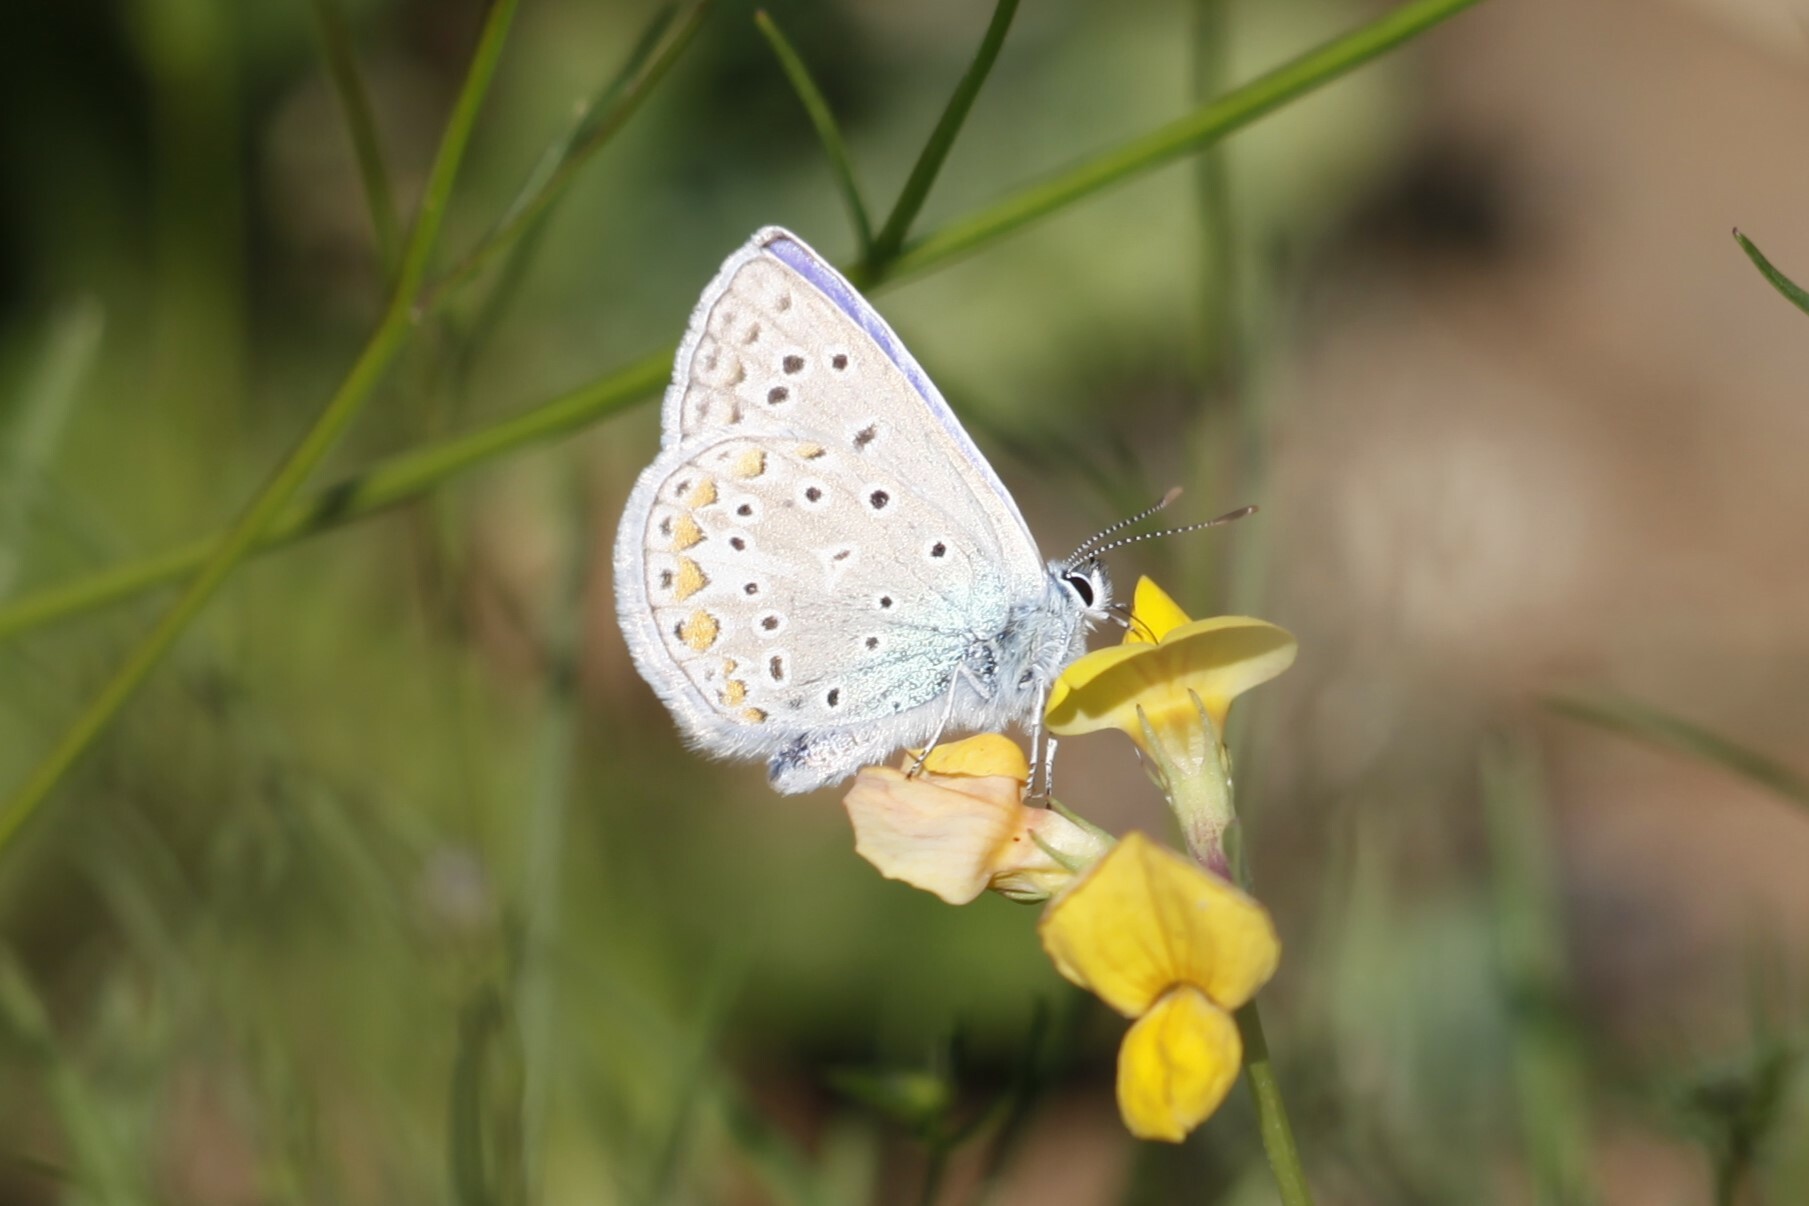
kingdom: Animalia
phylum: Arthropoda
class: Insecta
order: Lepidoptera
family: Lycaenidae
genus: Polyommatus
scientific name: Polyommatus icarus
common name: Common blue
